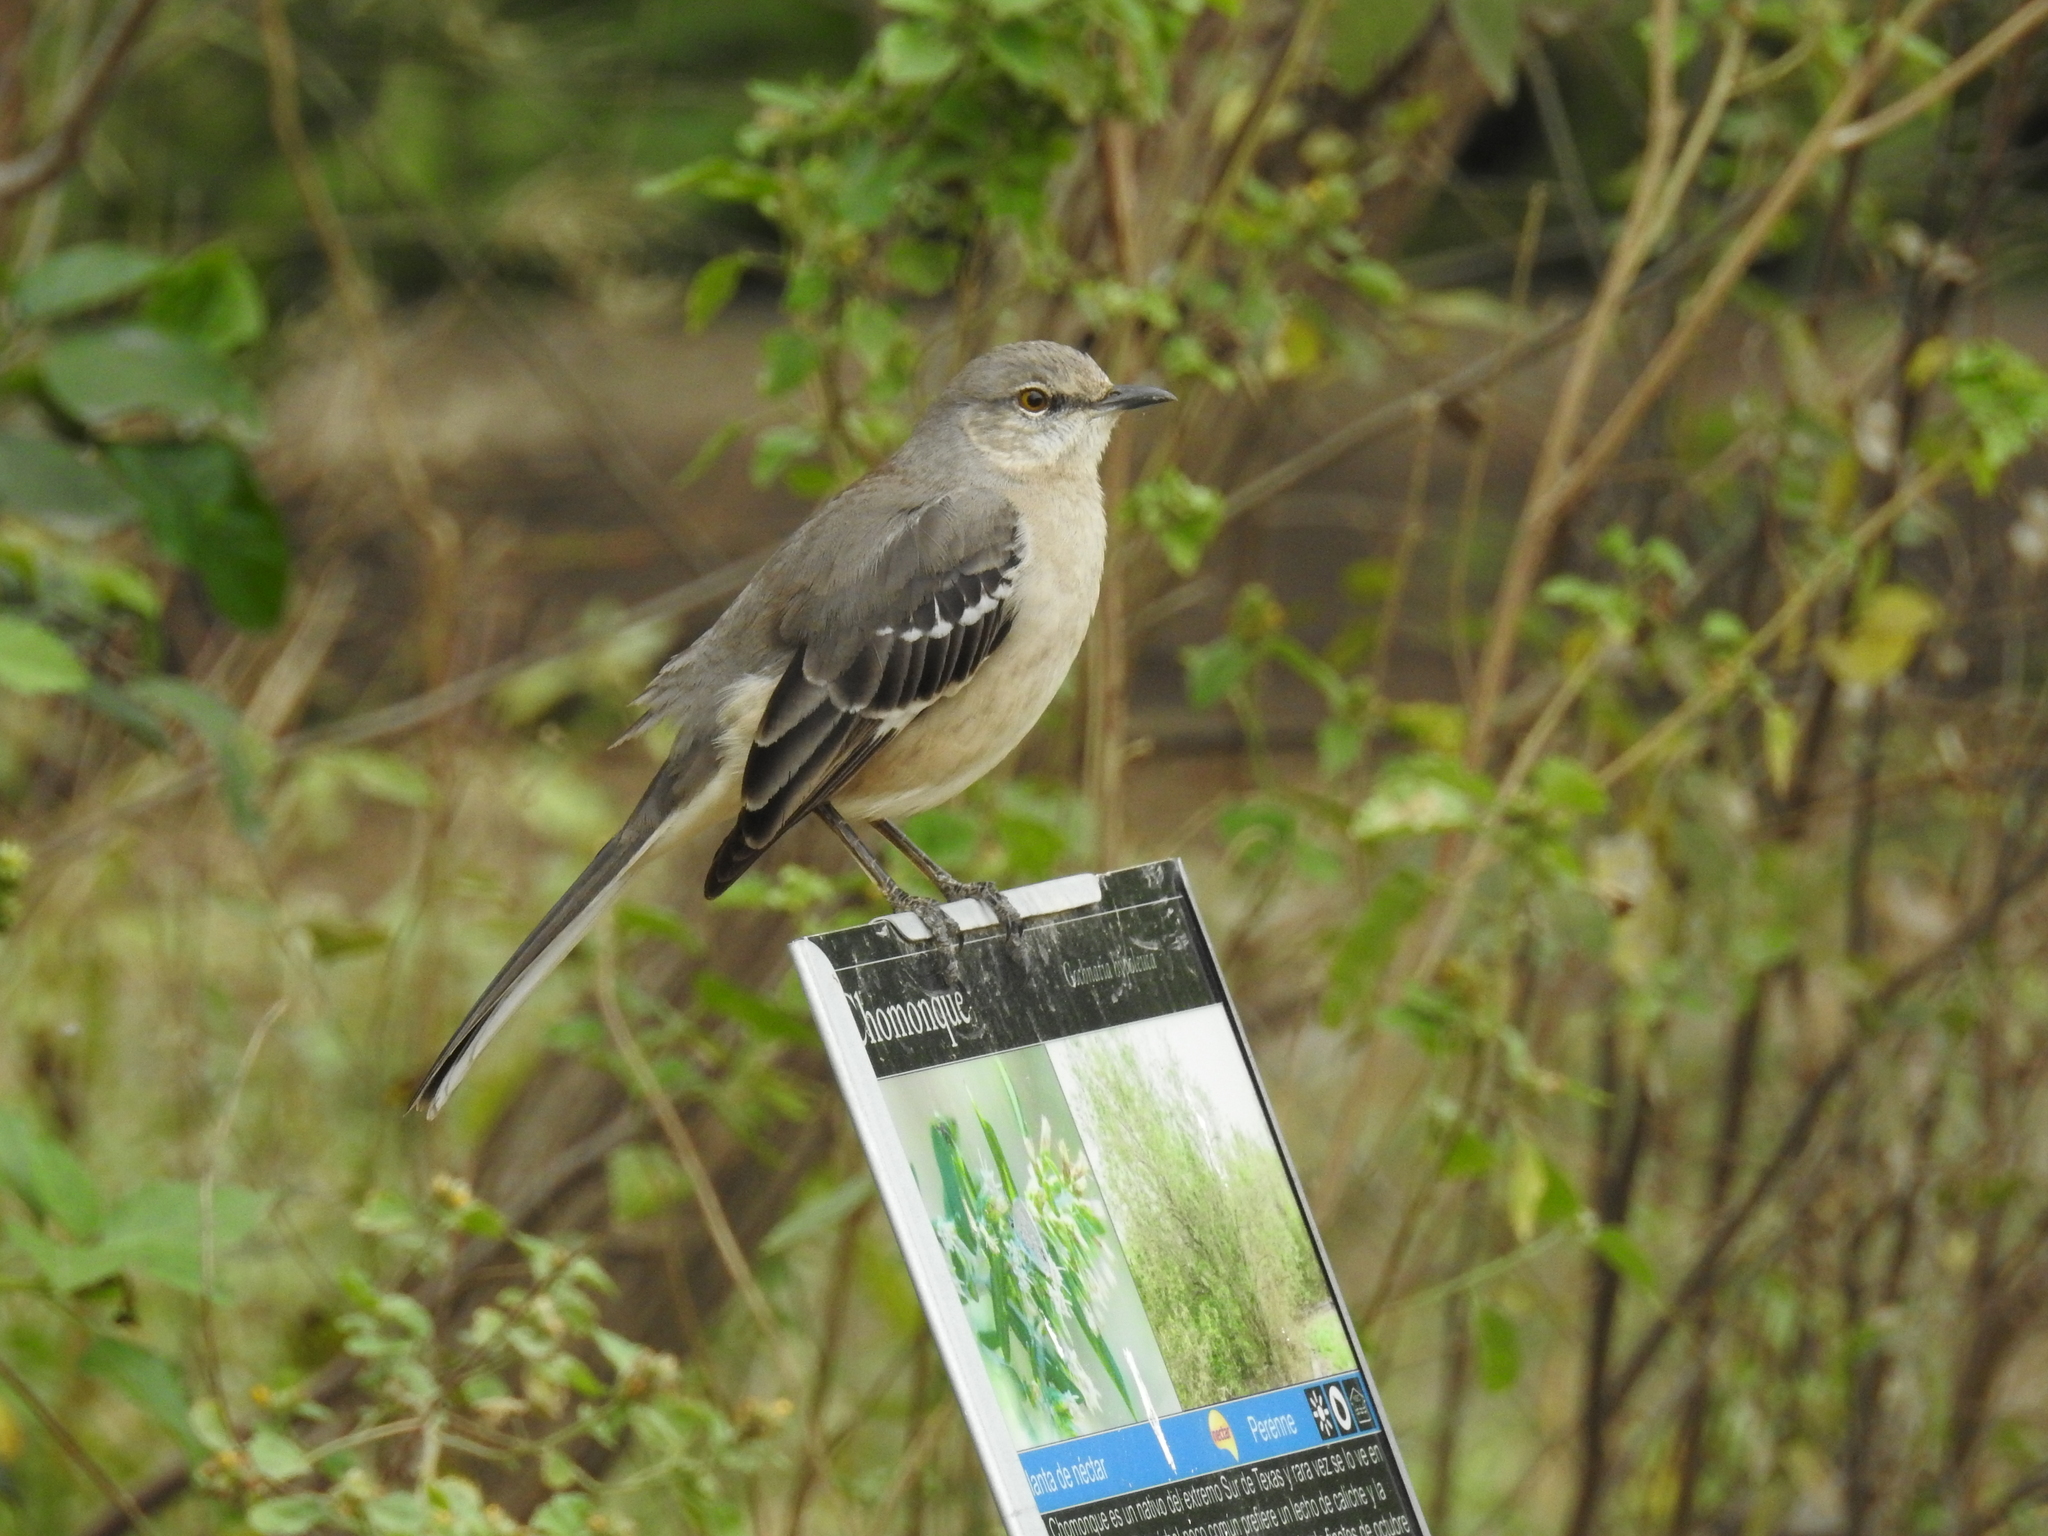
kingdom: Animalia
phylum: Chordata
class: Aves
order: Passeriformes
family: Mimidae
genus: Mimus
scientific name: Mimus polyglottos
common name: Northern mockingbird
